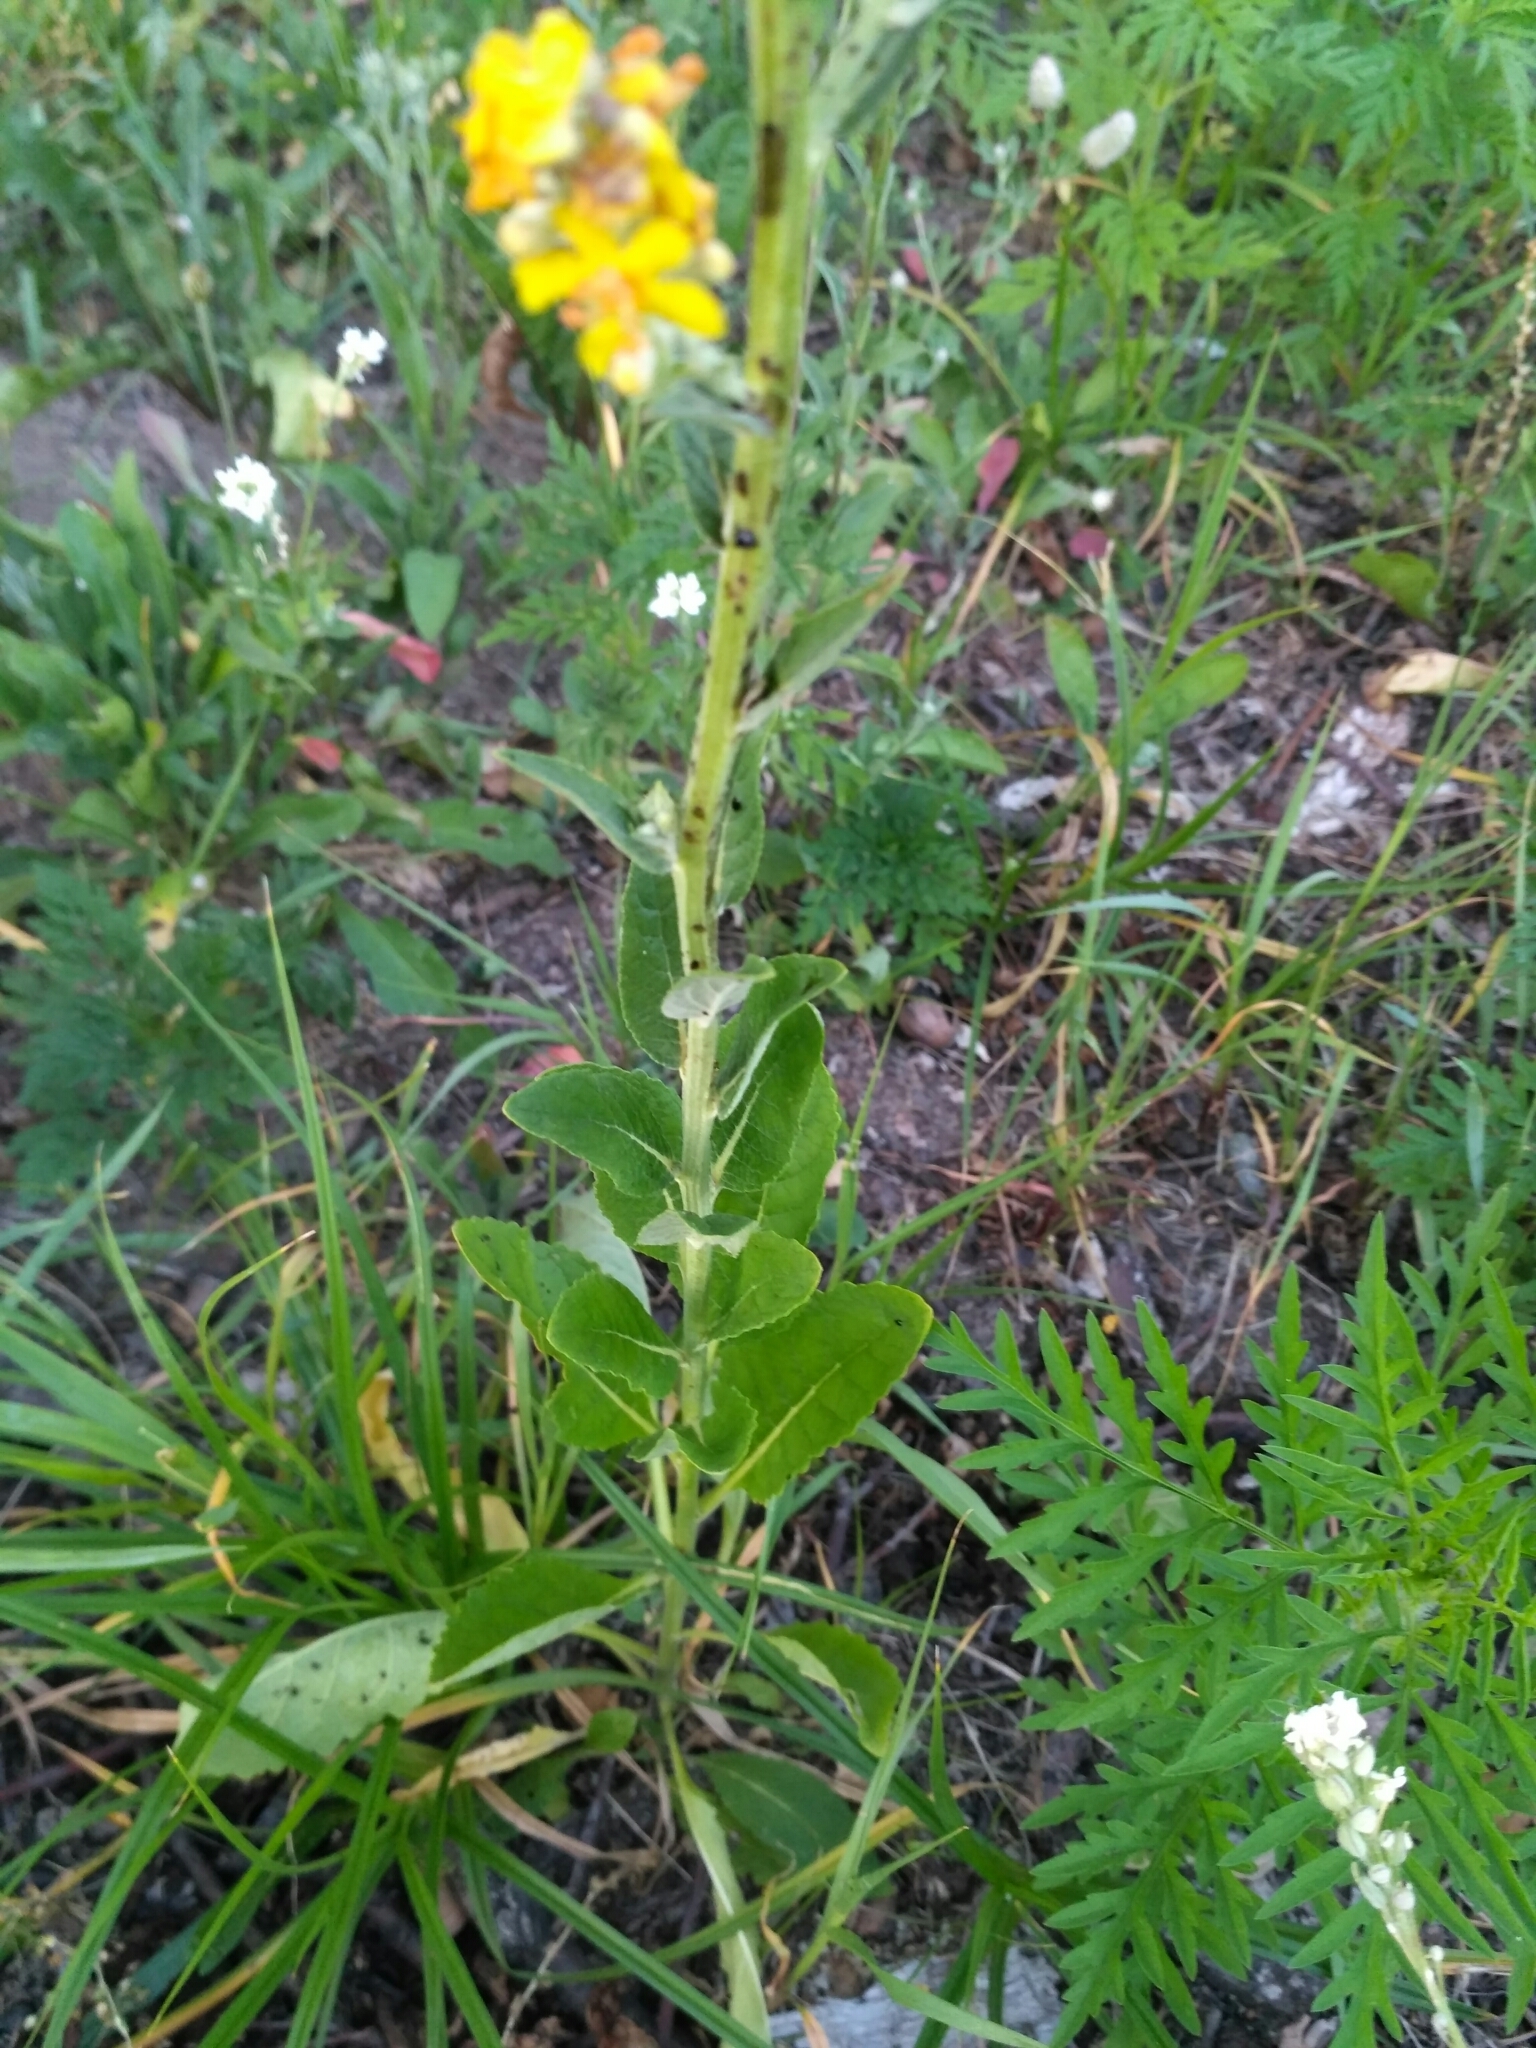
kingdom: Plantae
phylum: Tracheophyta
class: Magnoliopsida
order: Lamiales
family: Scrophulariaceae
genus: Verbascum
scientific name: Verbascum lychnitis
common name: White mullein
